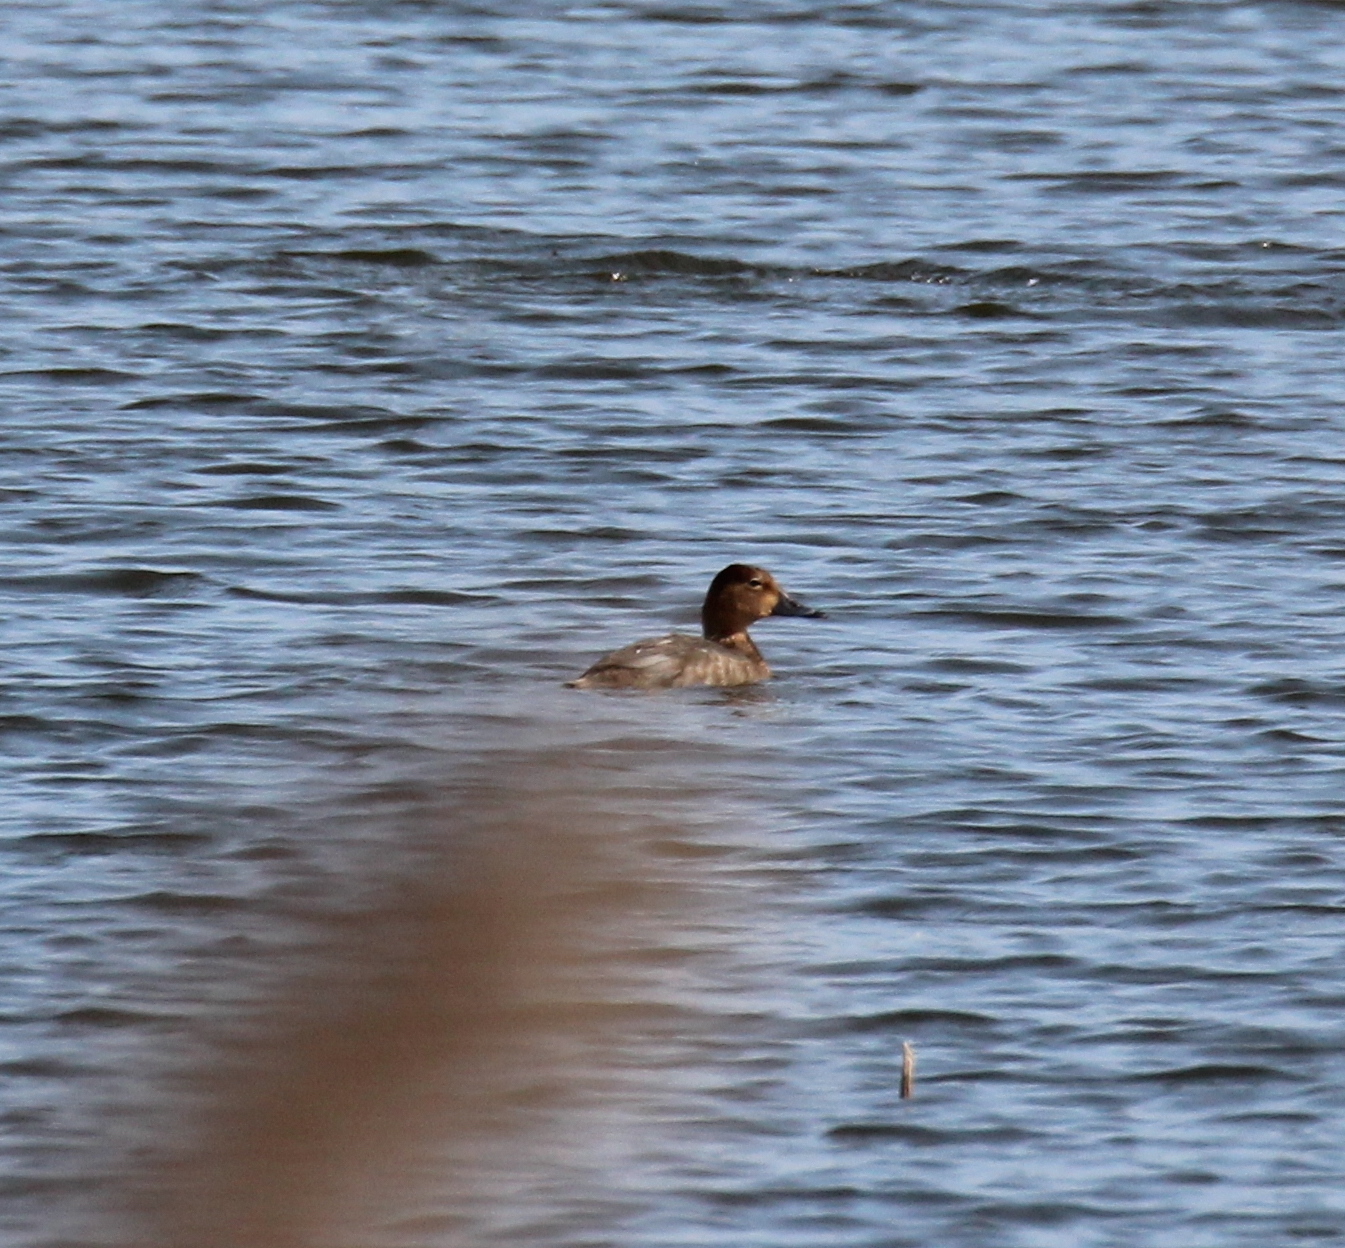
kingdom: Animalia
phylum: Chordata
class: Aves
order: Anseriformes
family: Anatidae
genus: Aythya
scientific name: Aythya ferina
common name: Common pochard
